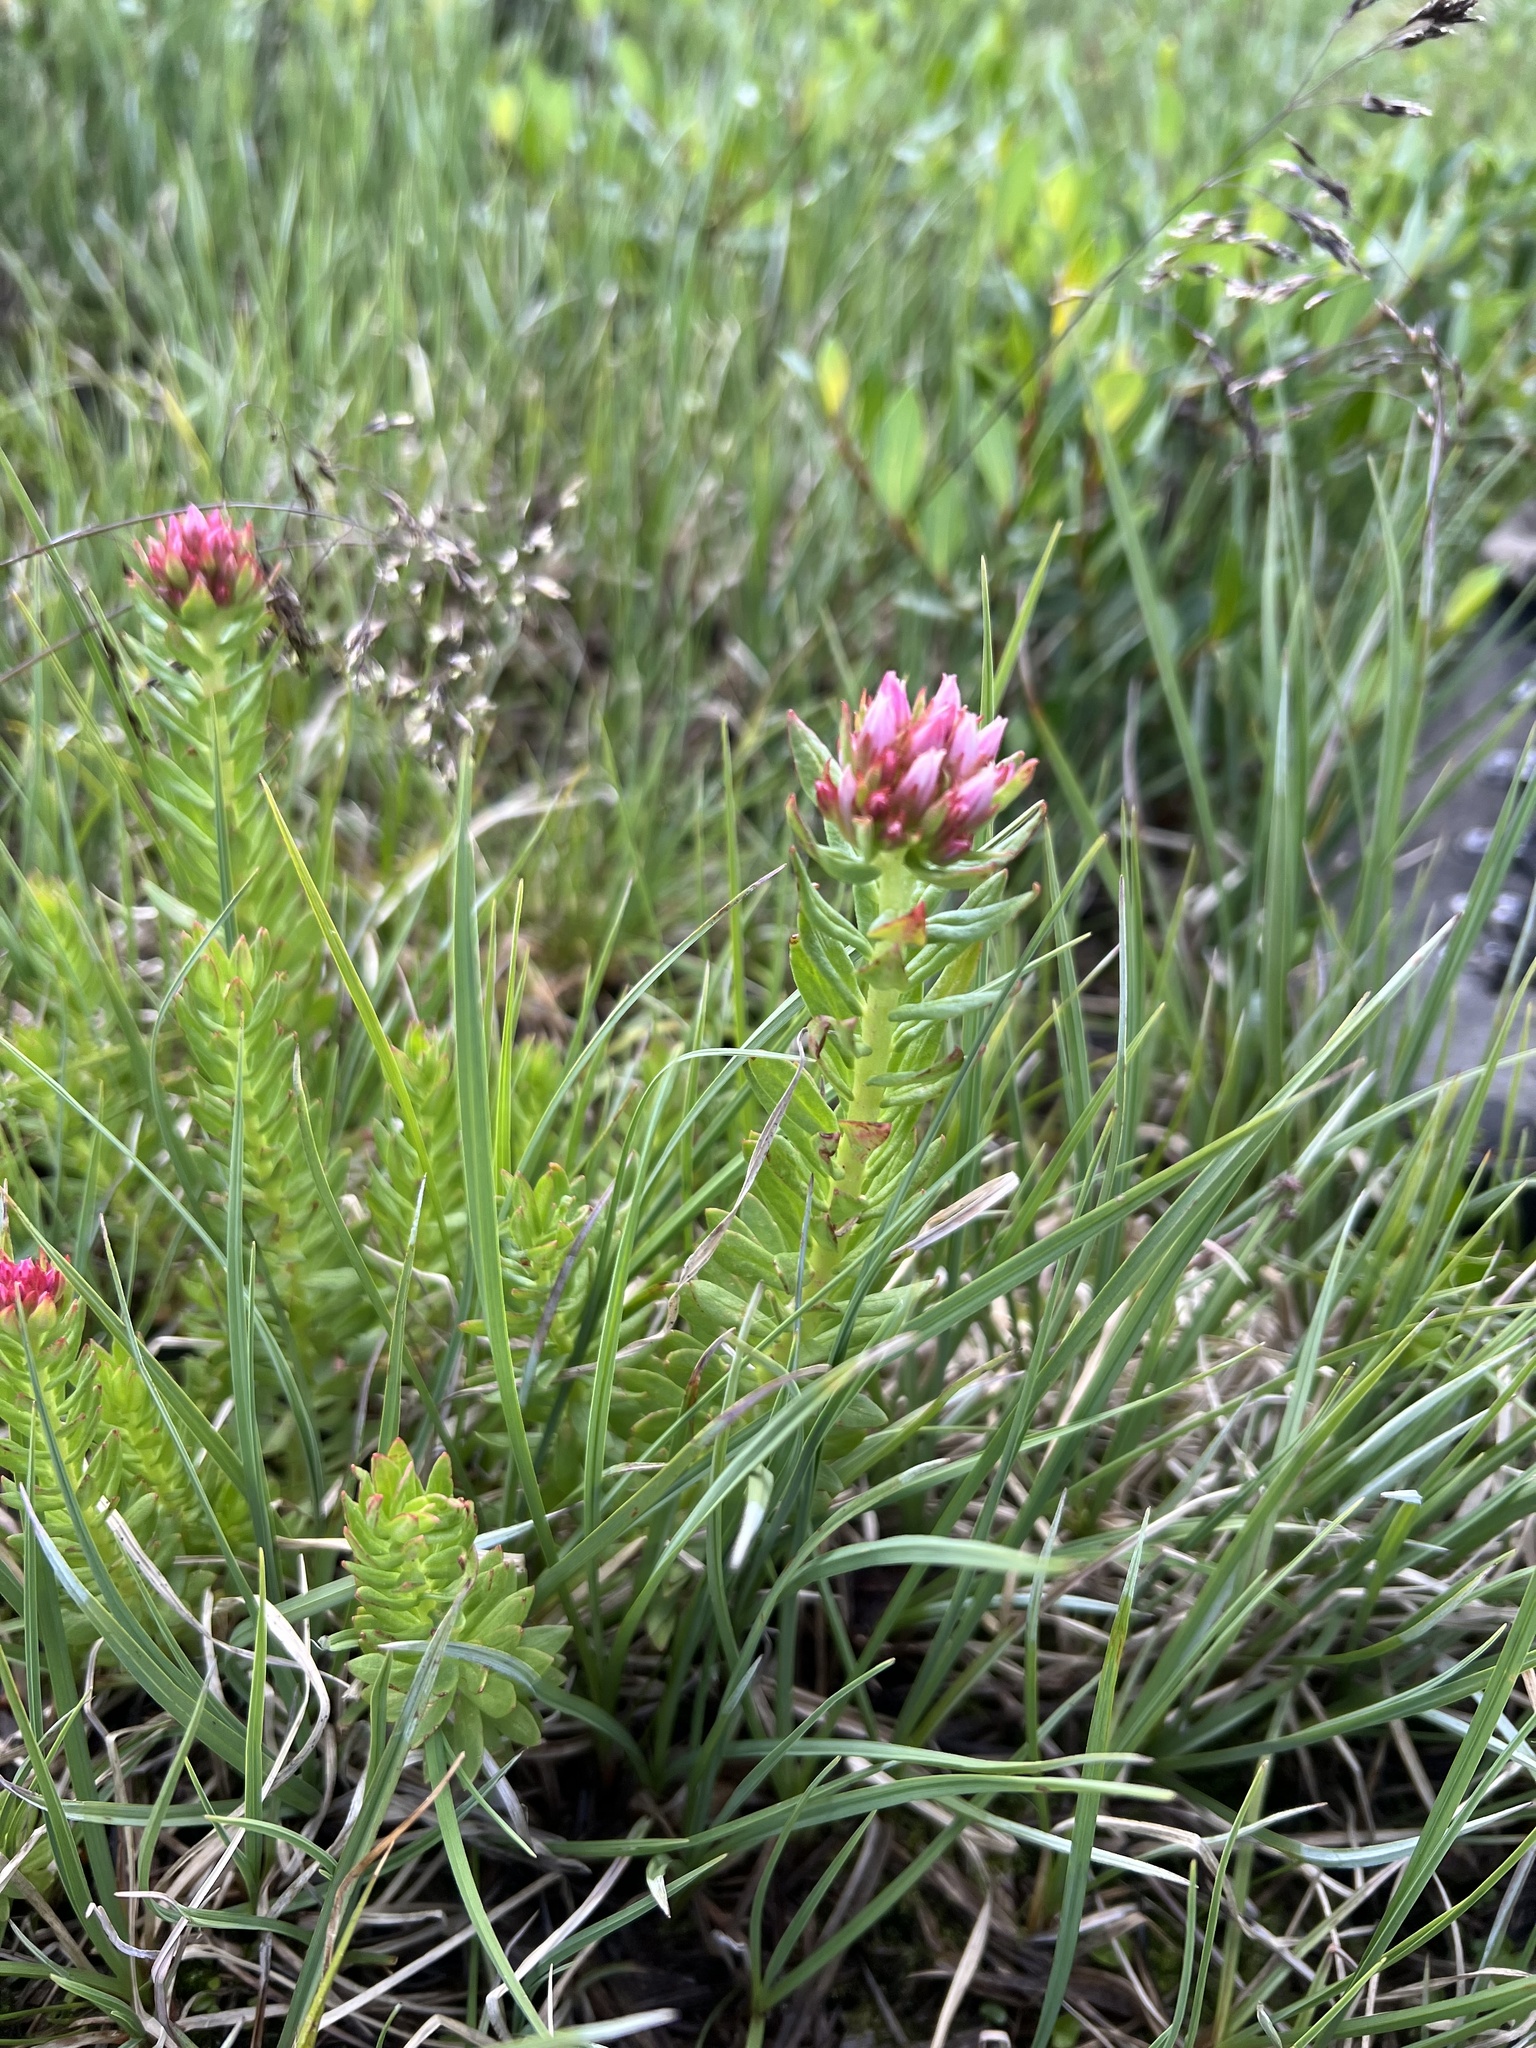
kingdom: Plantae
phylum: Tracheophyta
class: Magnoliopsida
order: Saxifragales
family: Crassulaceae
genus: Rhodiola
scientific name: Rhodiola rhodantha
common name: Red orpine
